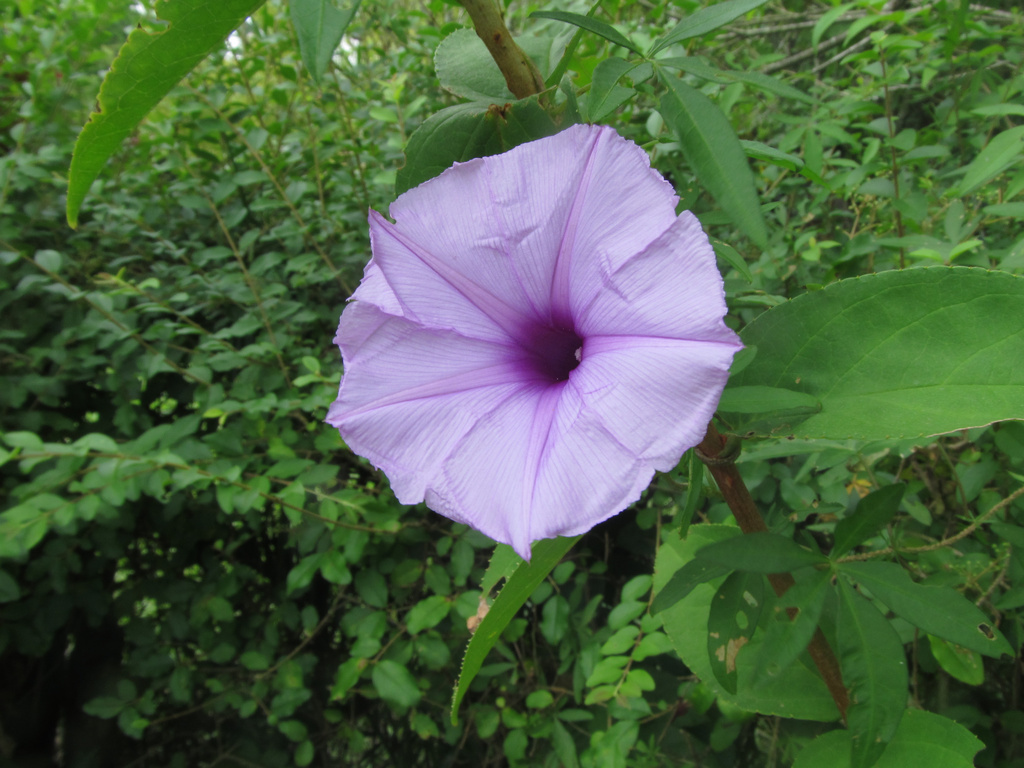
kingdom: Plantae
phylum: Tracheophyta
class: Magnoliopsida
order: Solanales
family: Convolvulaceae
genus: Ipomoea
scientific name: Ipomoea cairica
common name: Mile a minute vine
